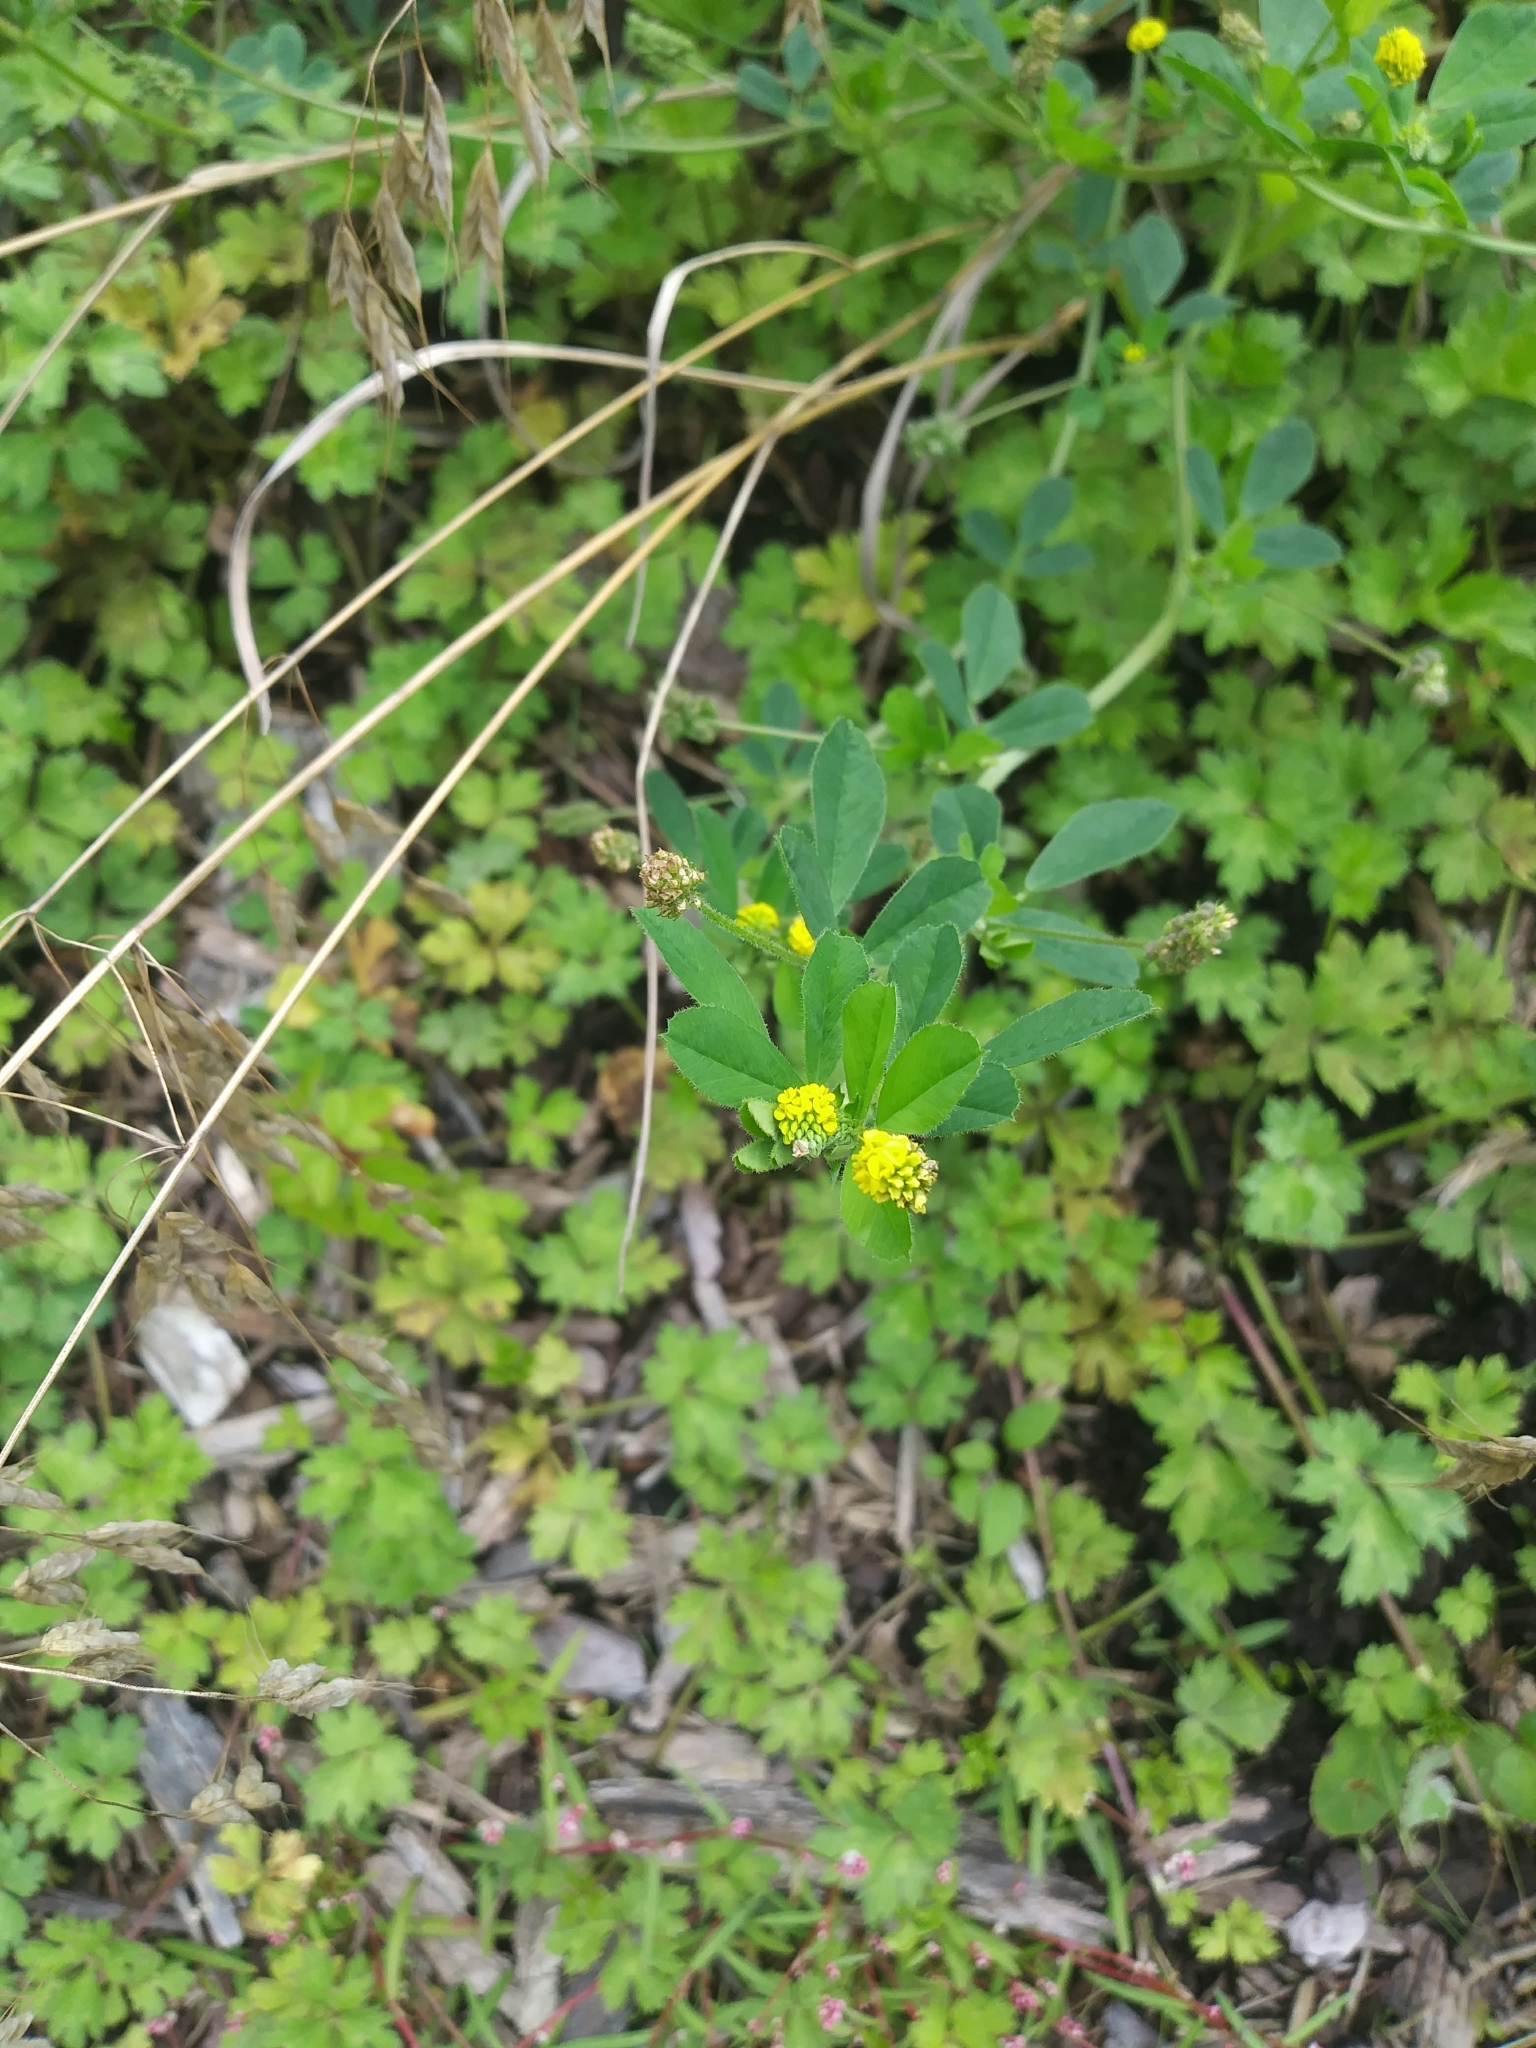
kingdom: Plantae
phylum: Tracheophyta
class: Magnoliopsida
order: Fabales
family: Fabaceae
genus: Medicago
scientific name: Medicago lupulina
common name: Black medick
